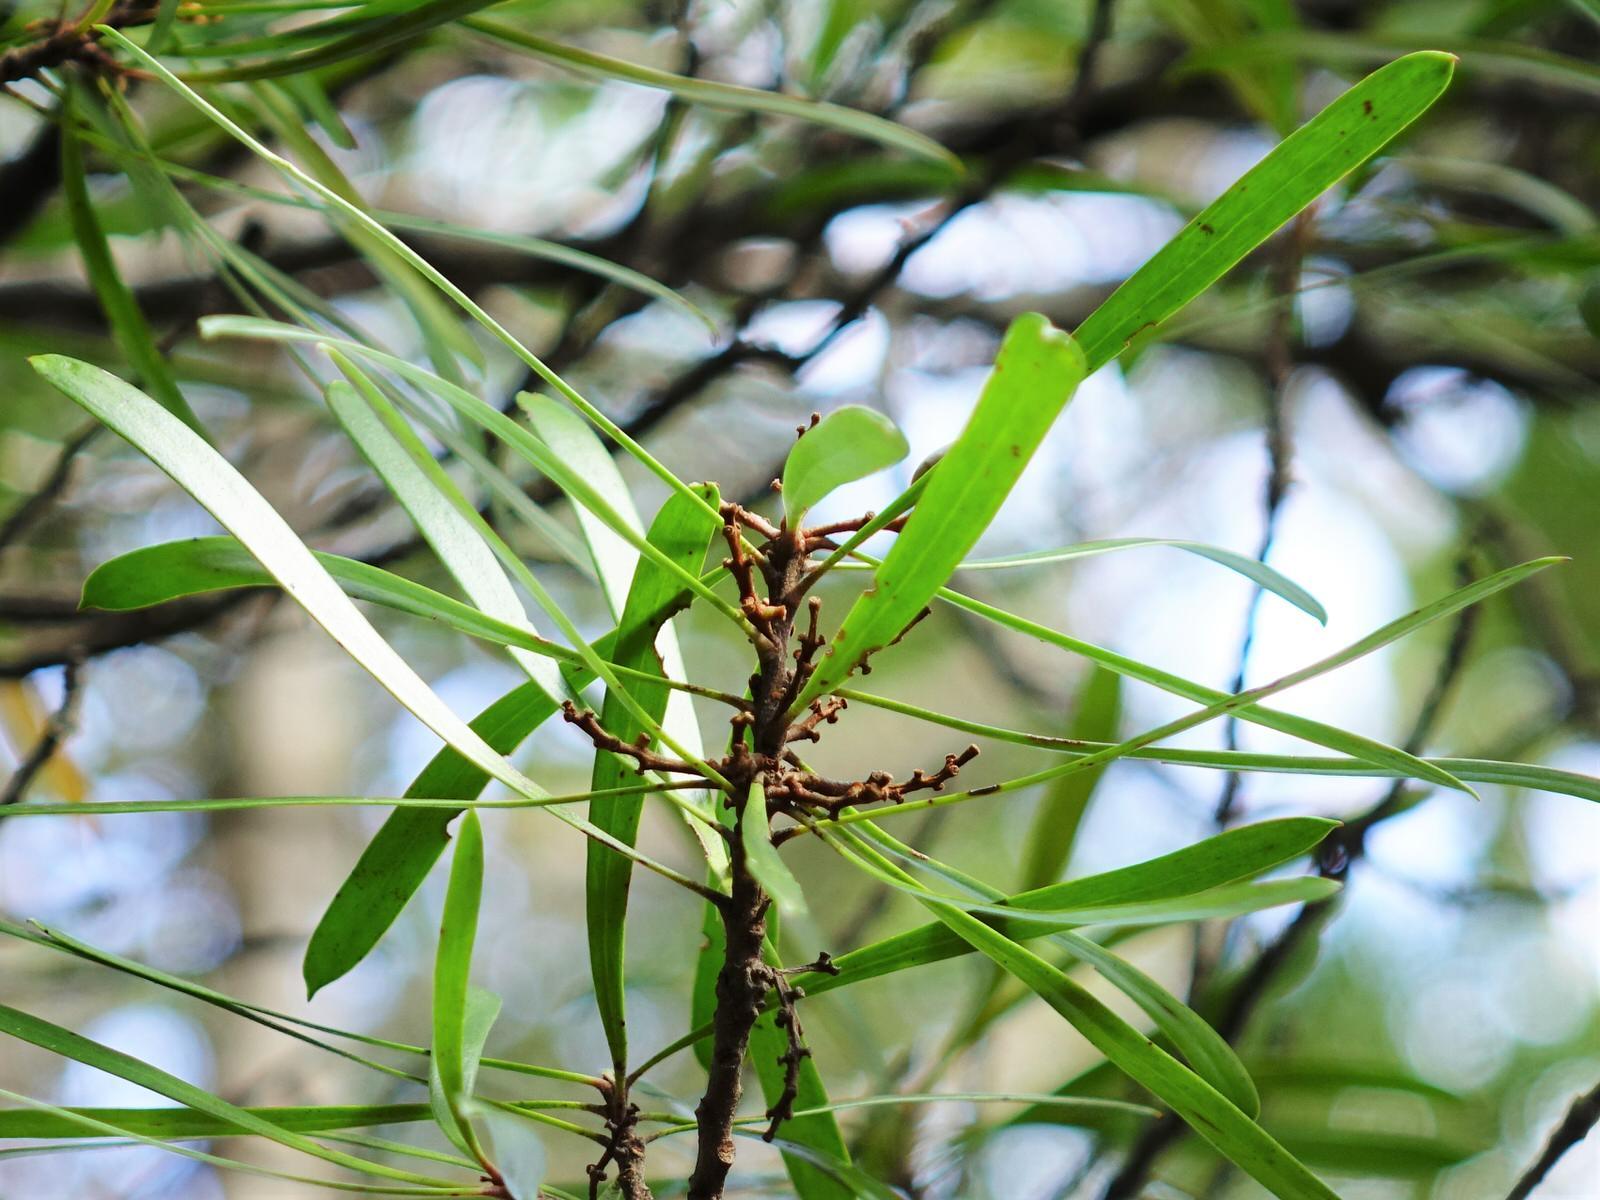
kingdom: Plantae
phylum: Tracheophyta
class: Magnoliopsida
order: Proteales
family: Proteaceae
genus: Toronia
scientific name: Toronia toru
